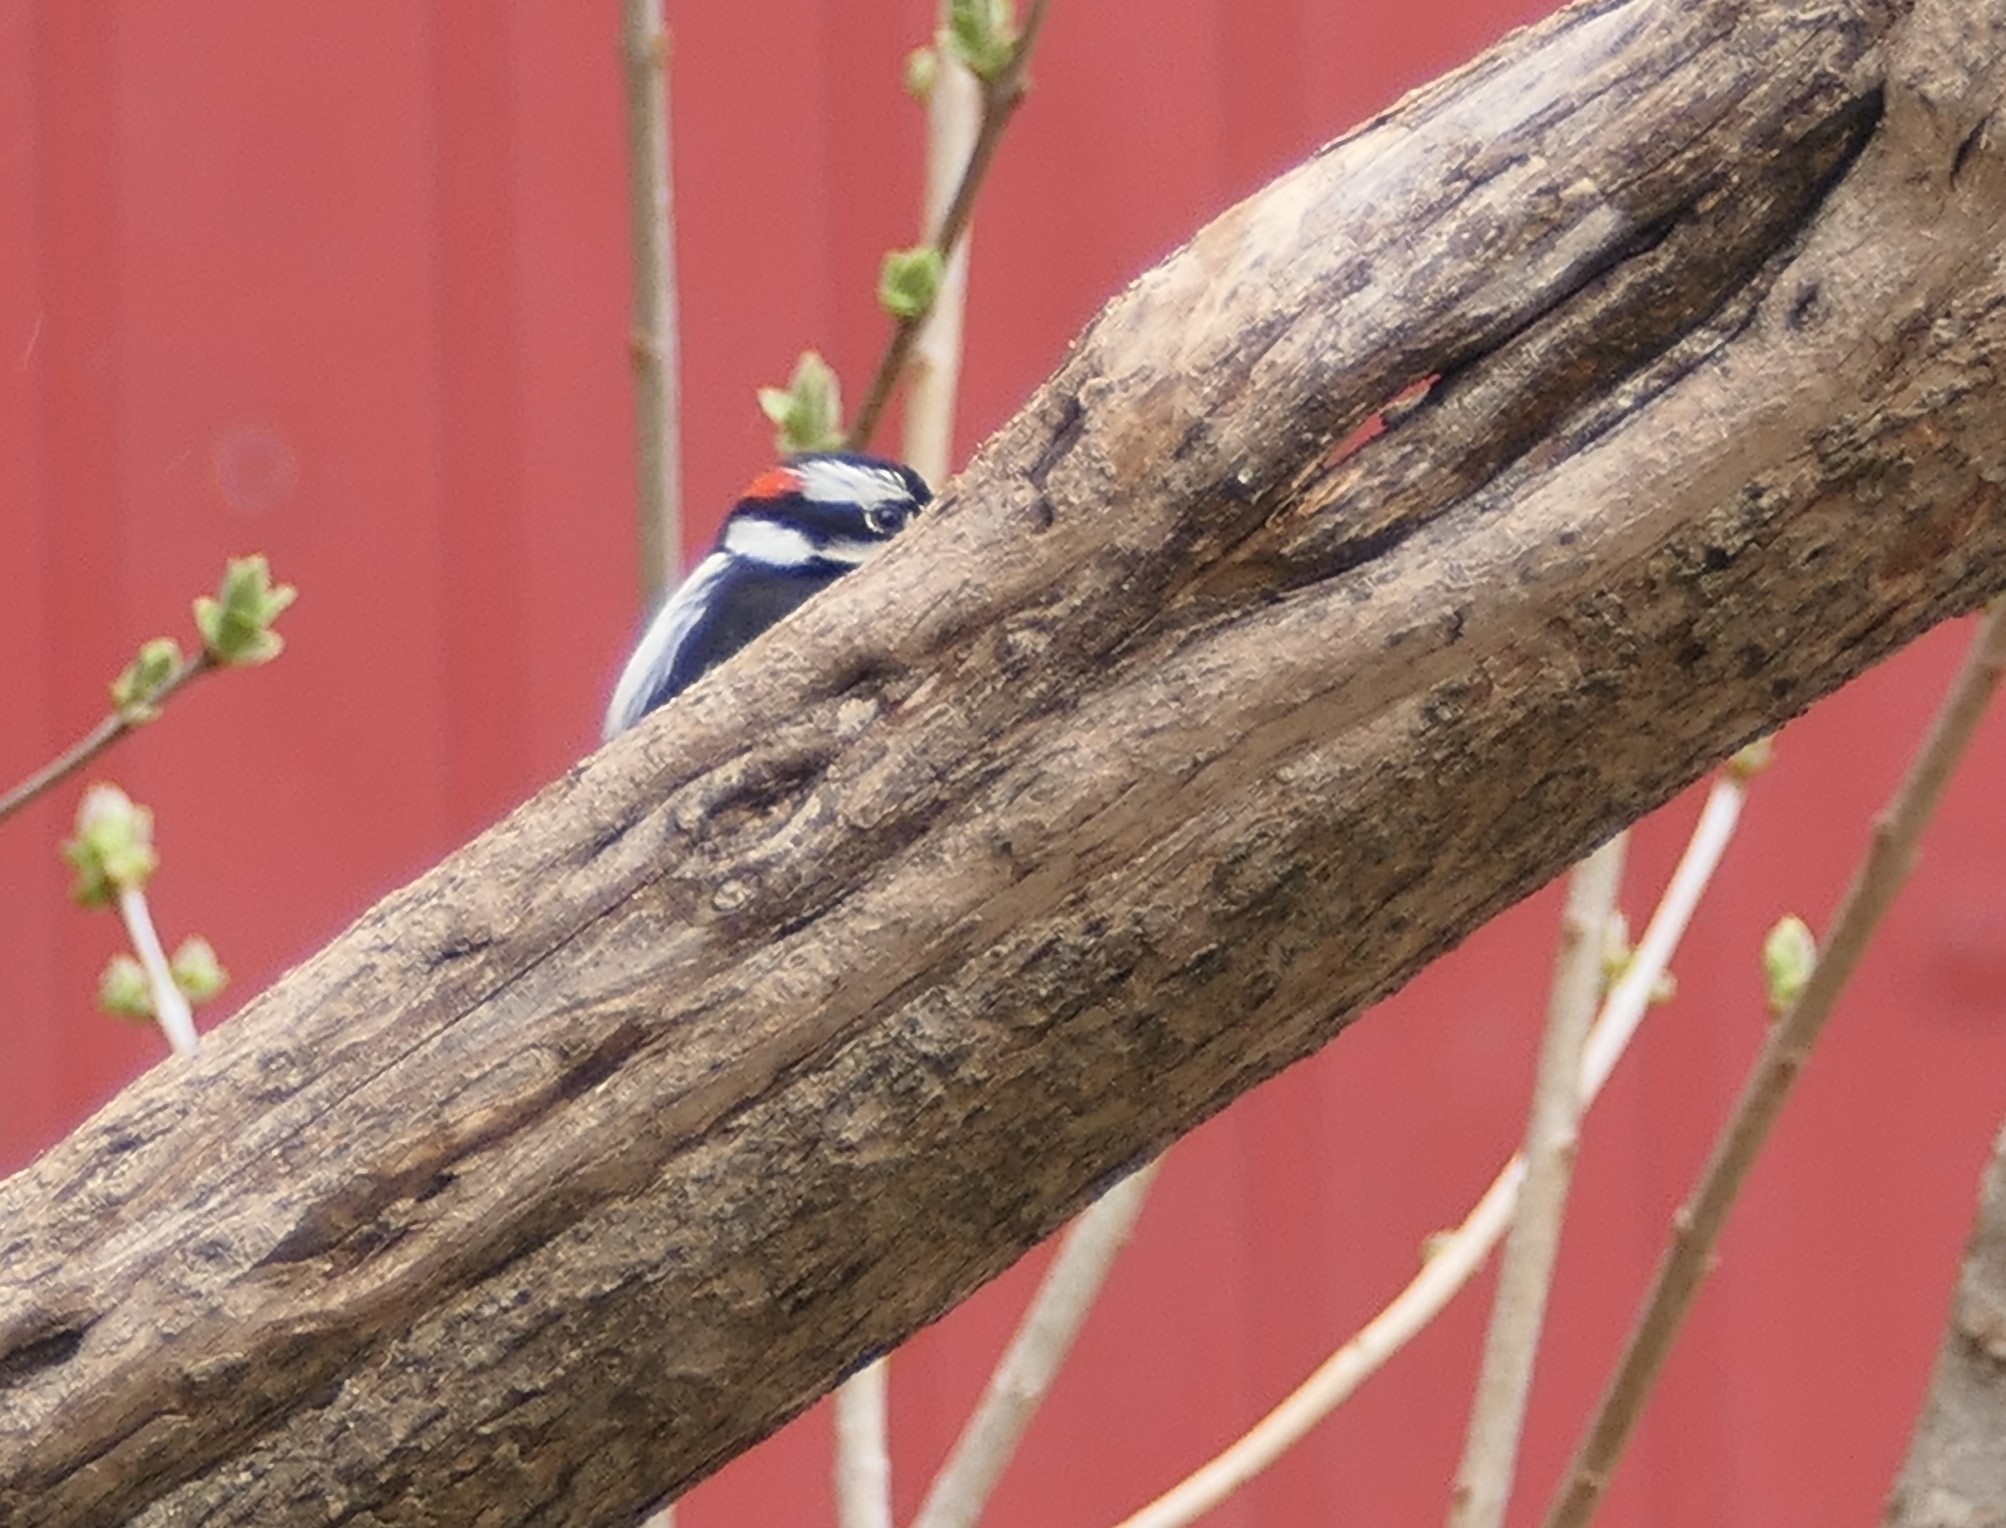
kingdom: Animalia
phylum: Chordata
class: Aves
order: Piciformes
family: Picidae
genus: Dryobates
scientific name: Dryobates pubescens
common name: Downy woodpecker
